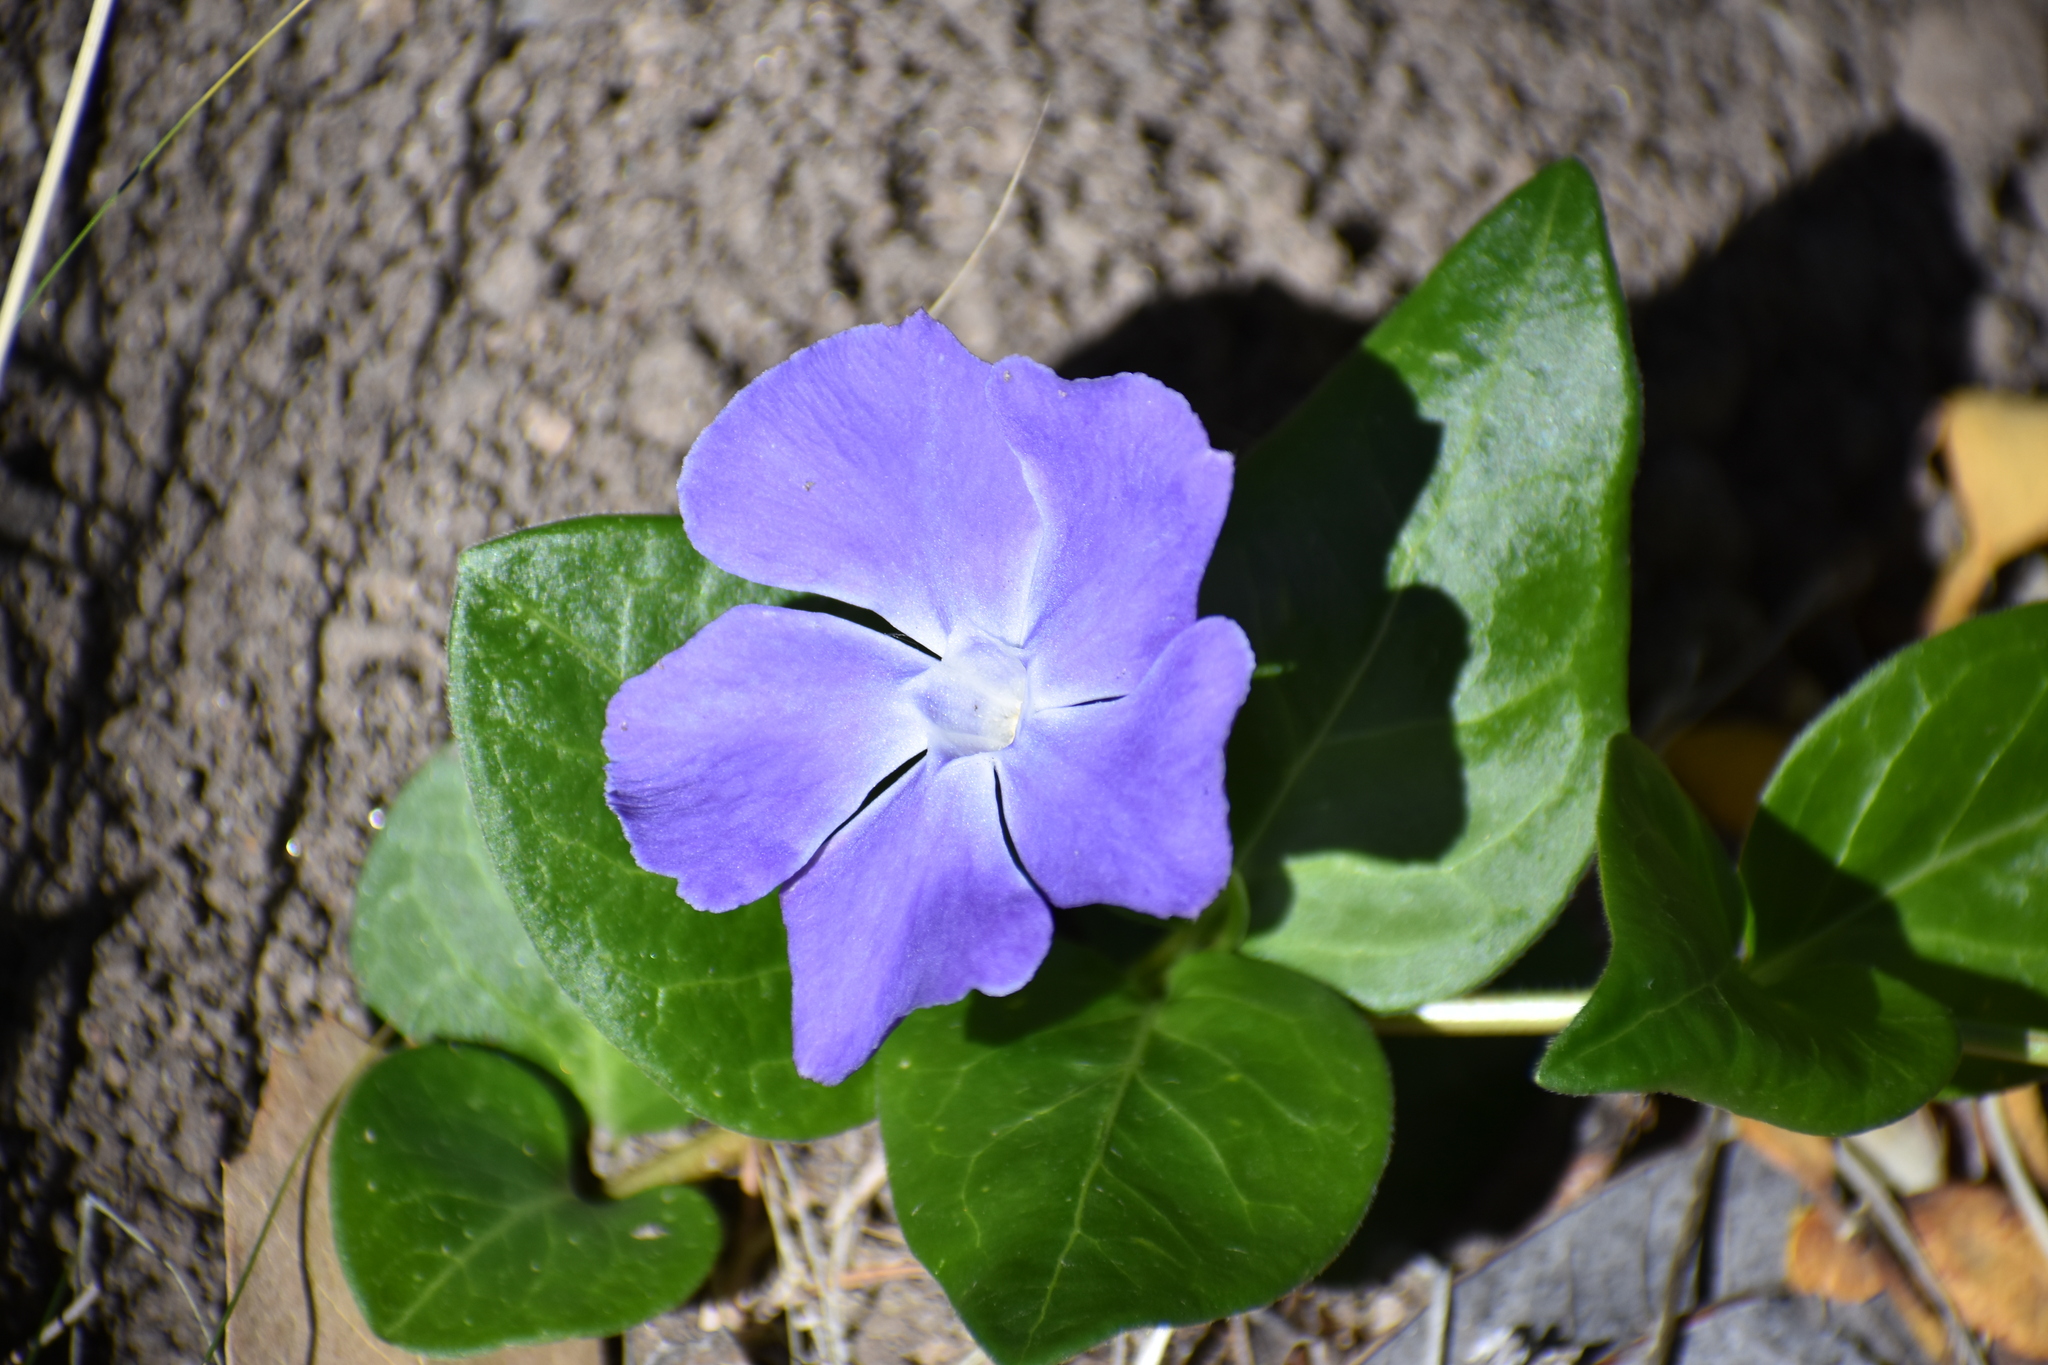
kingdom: Plantae
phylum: Tracheophyta
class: Magnoliopsida
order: Gentianales
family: Apocynaceae
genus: Vinca
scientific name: Vinca major
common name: Greater periwinkle
